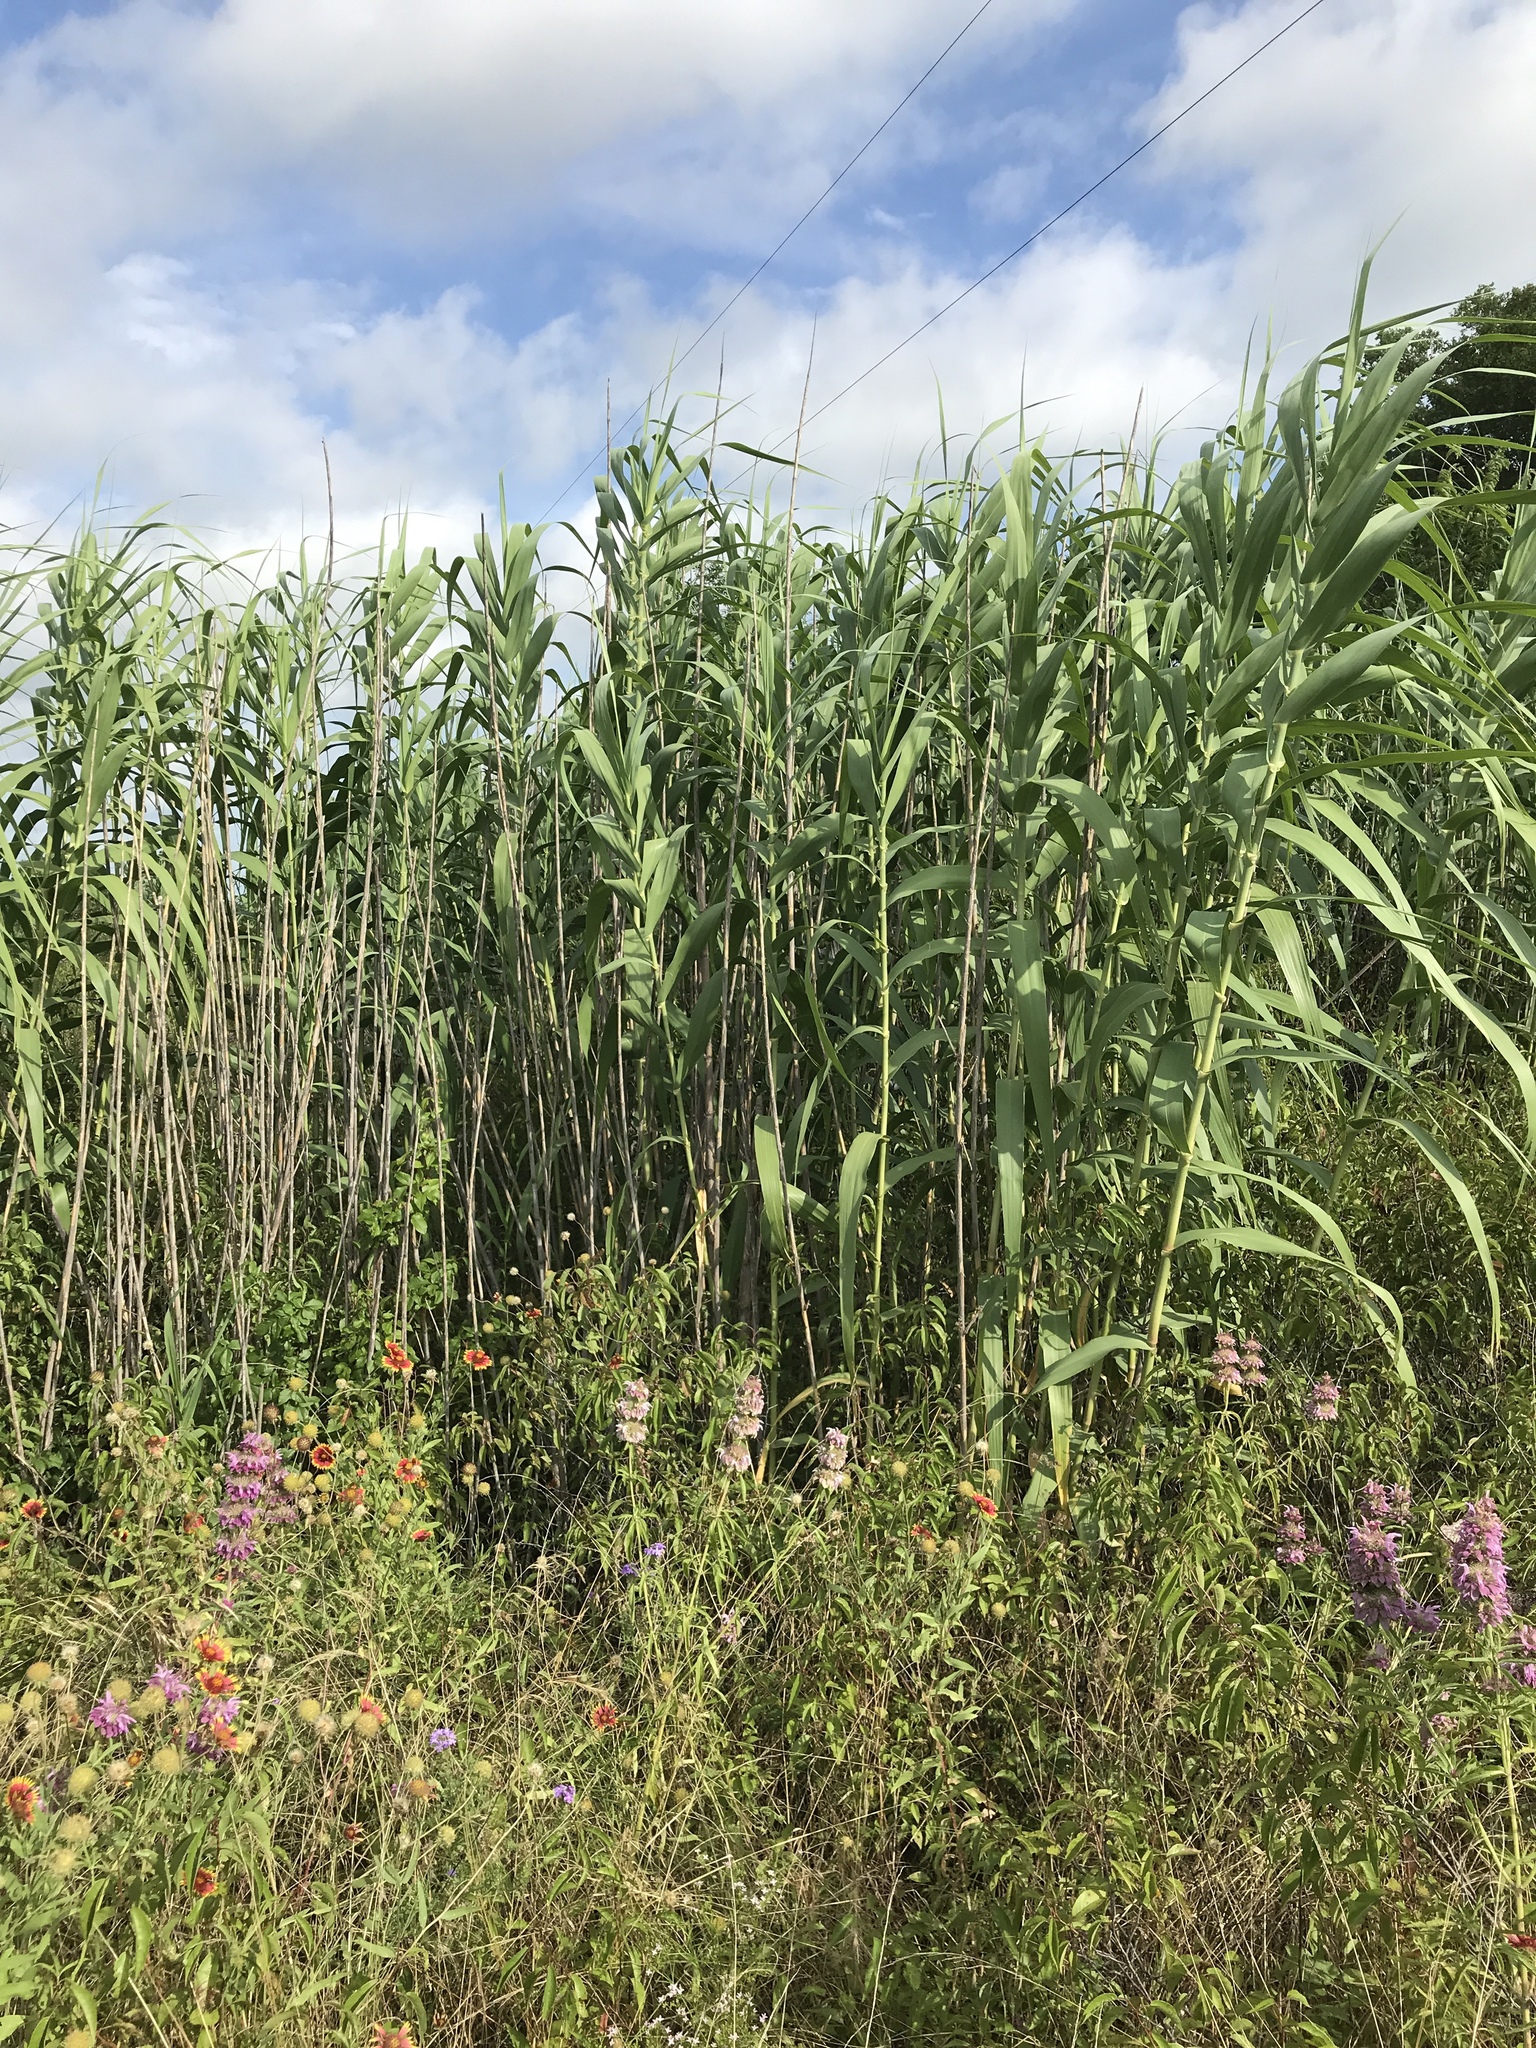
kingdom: Plantae
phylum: Tracheophyta
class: Liliopsida
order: Poales
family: Poaceae
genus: Arundo
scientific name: Arundo donax
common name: Giant reed
